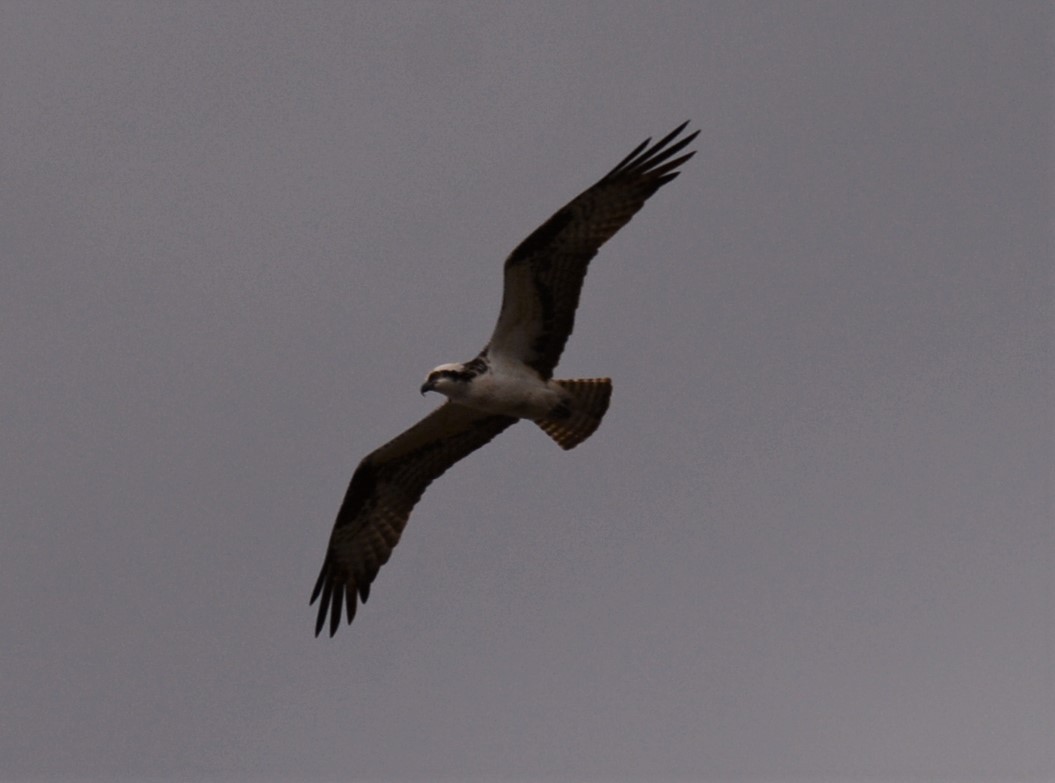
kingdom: Animalia
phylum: Chordata
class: Aves
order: Accipitriformes
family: Pandionidae
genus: Pandion
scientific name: Pandion haliaetus
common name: Osprey
